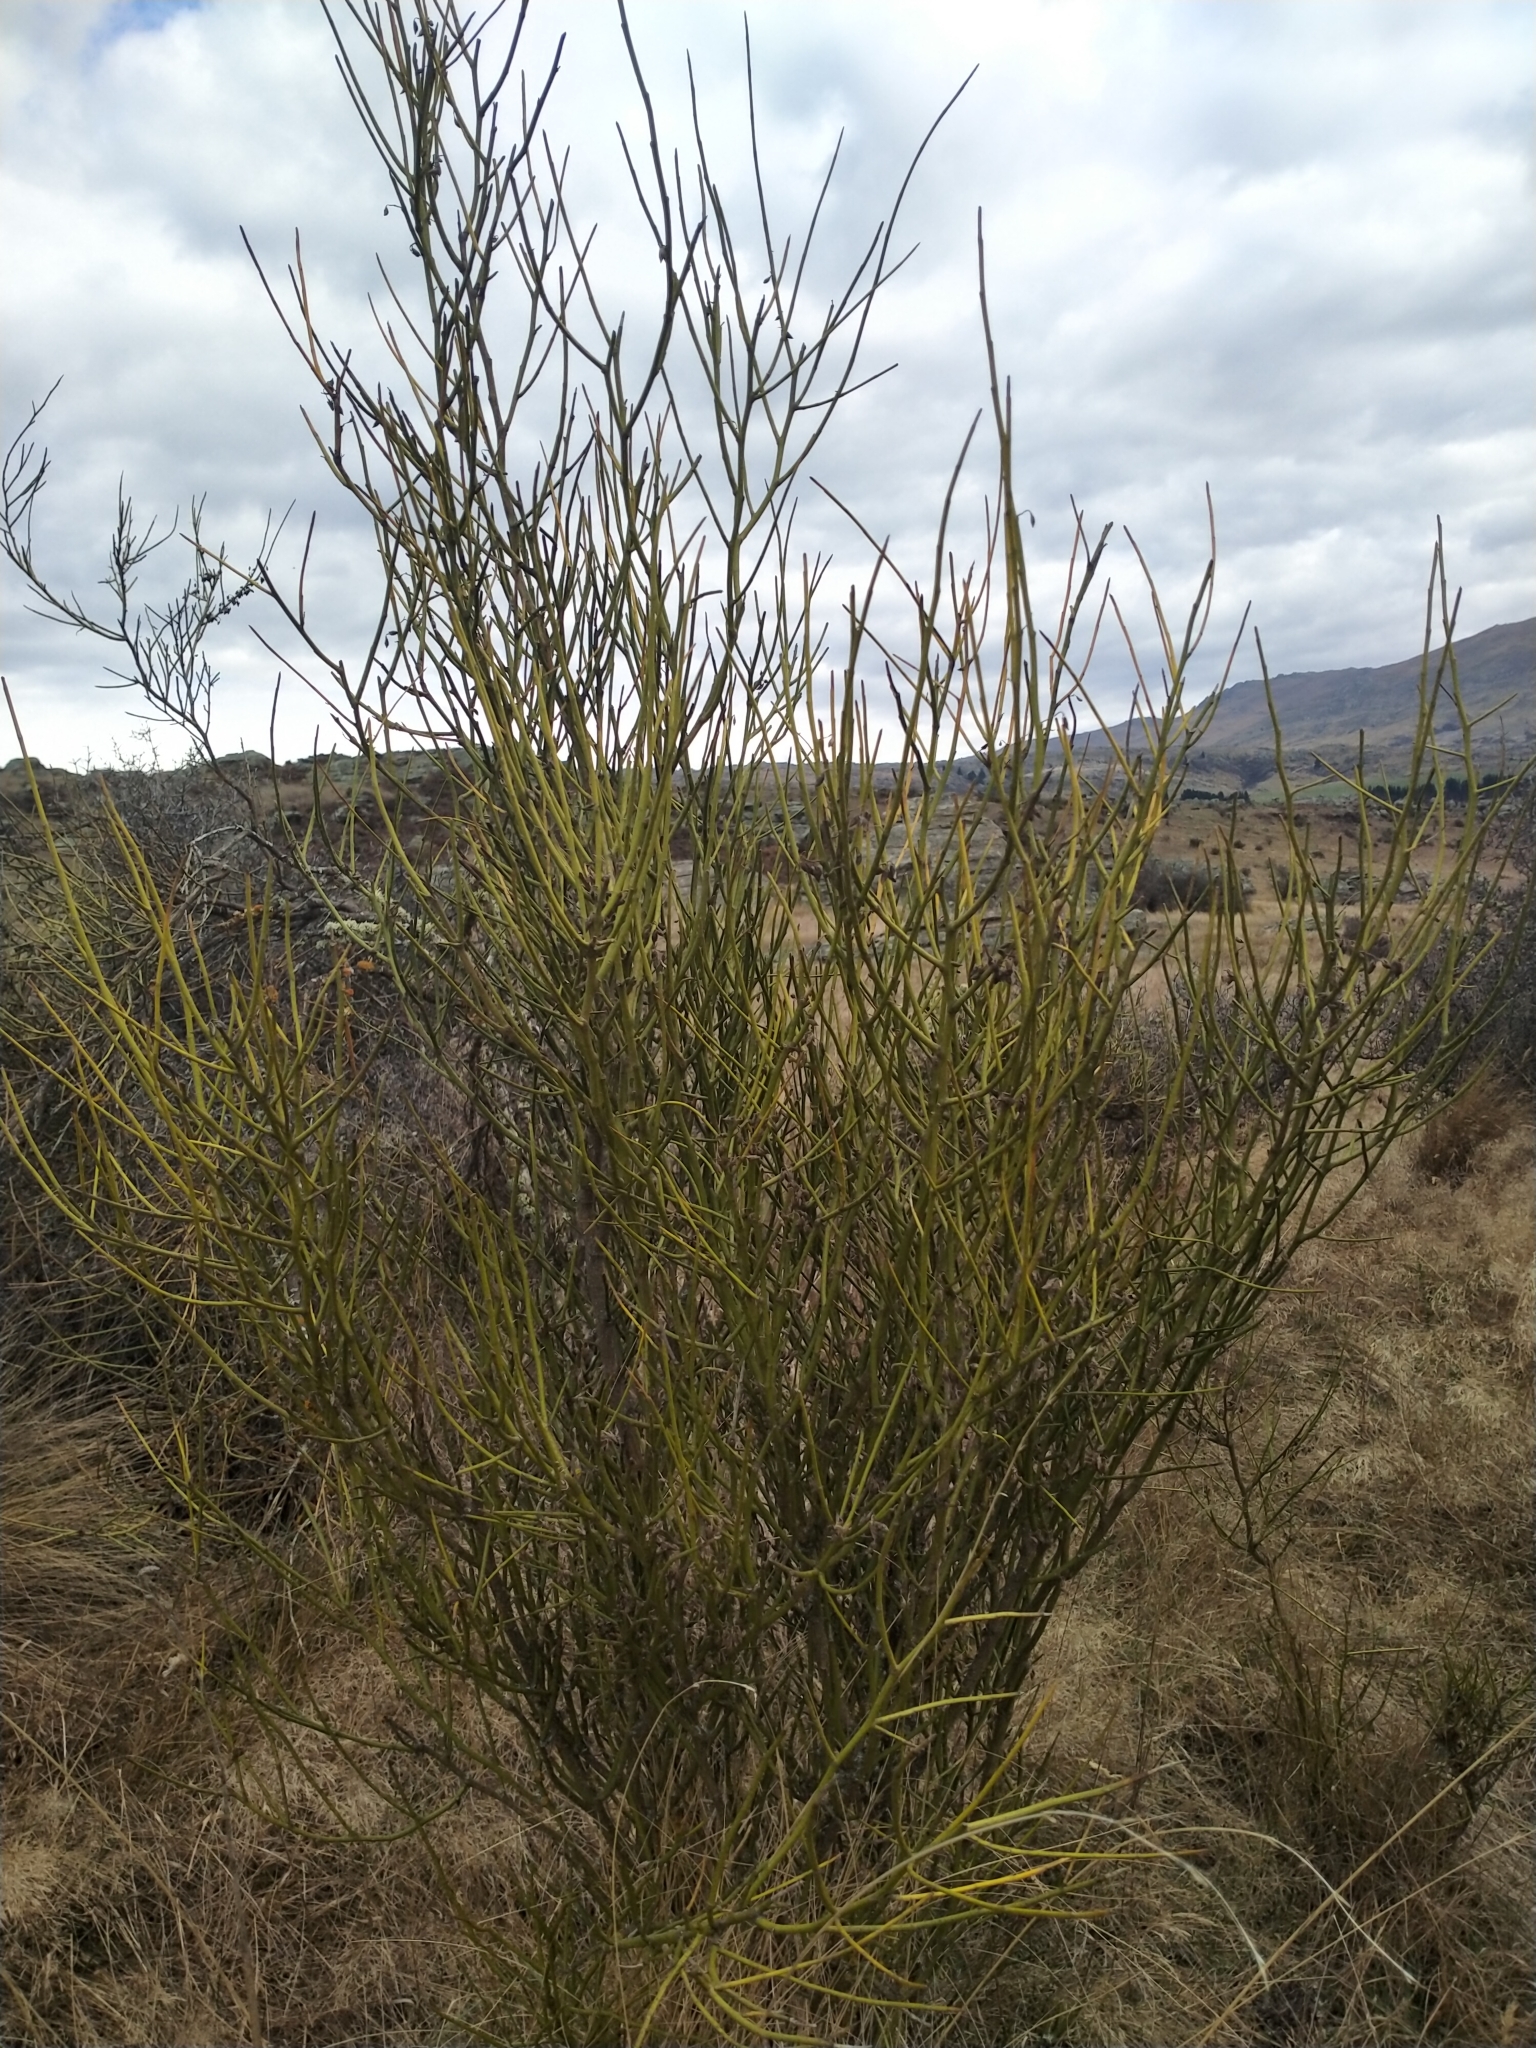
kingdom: Plantae
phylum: Tracheophyta
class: Magnoliopsida
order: Fabales
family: Fabaceae
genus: Carmichaelia
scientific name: Carmichaelia petriei
